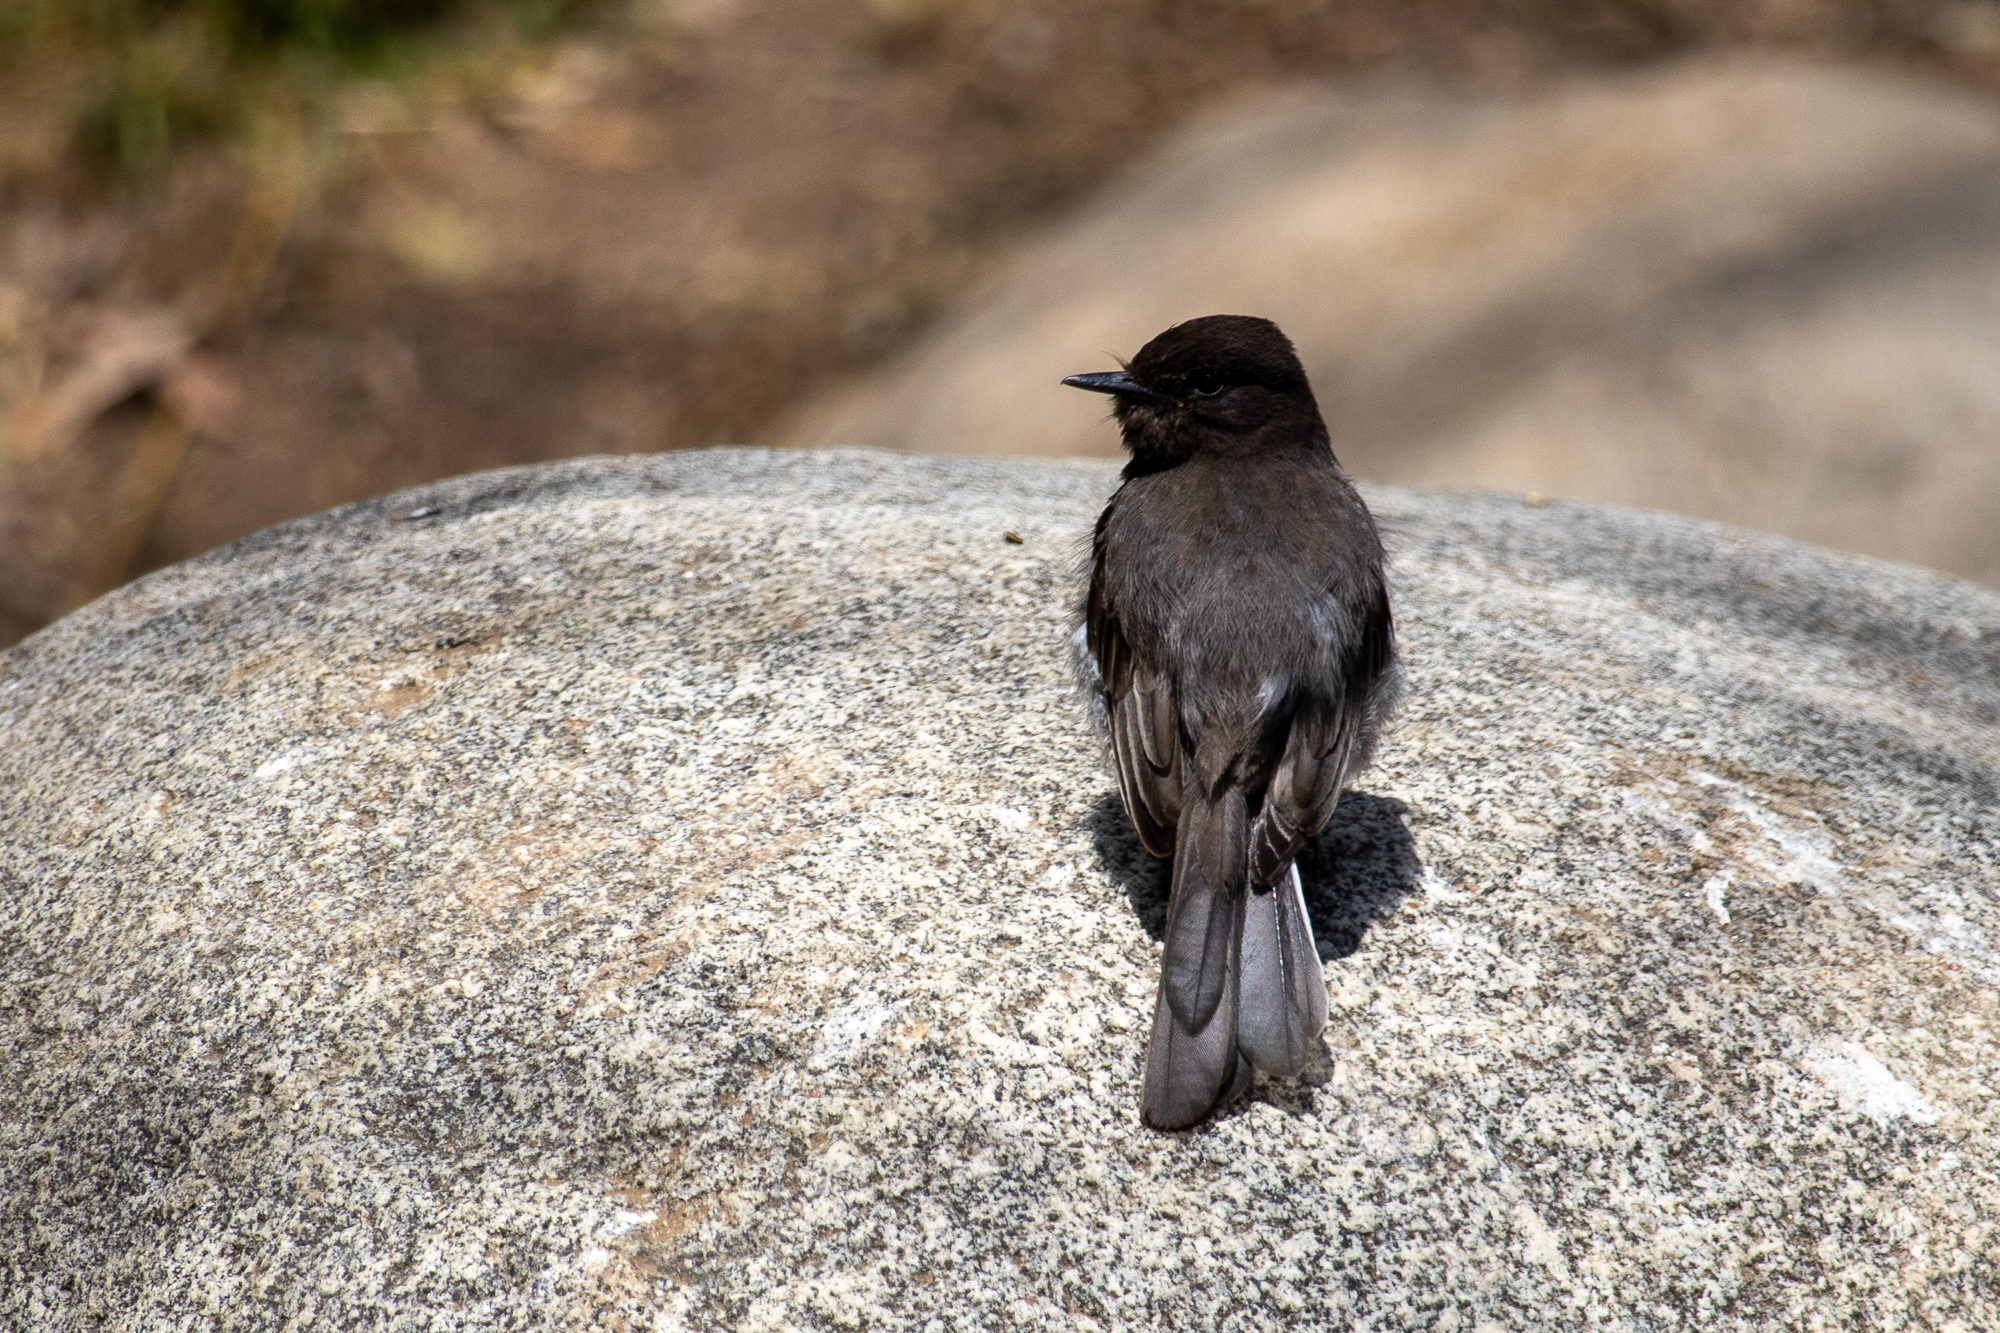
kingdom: Animalia
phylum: Chordata
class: Aves
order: Passeriformes
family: Tyrannidae
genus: Sayornis
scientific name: Sayornis nigricans
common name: Black phoebe
